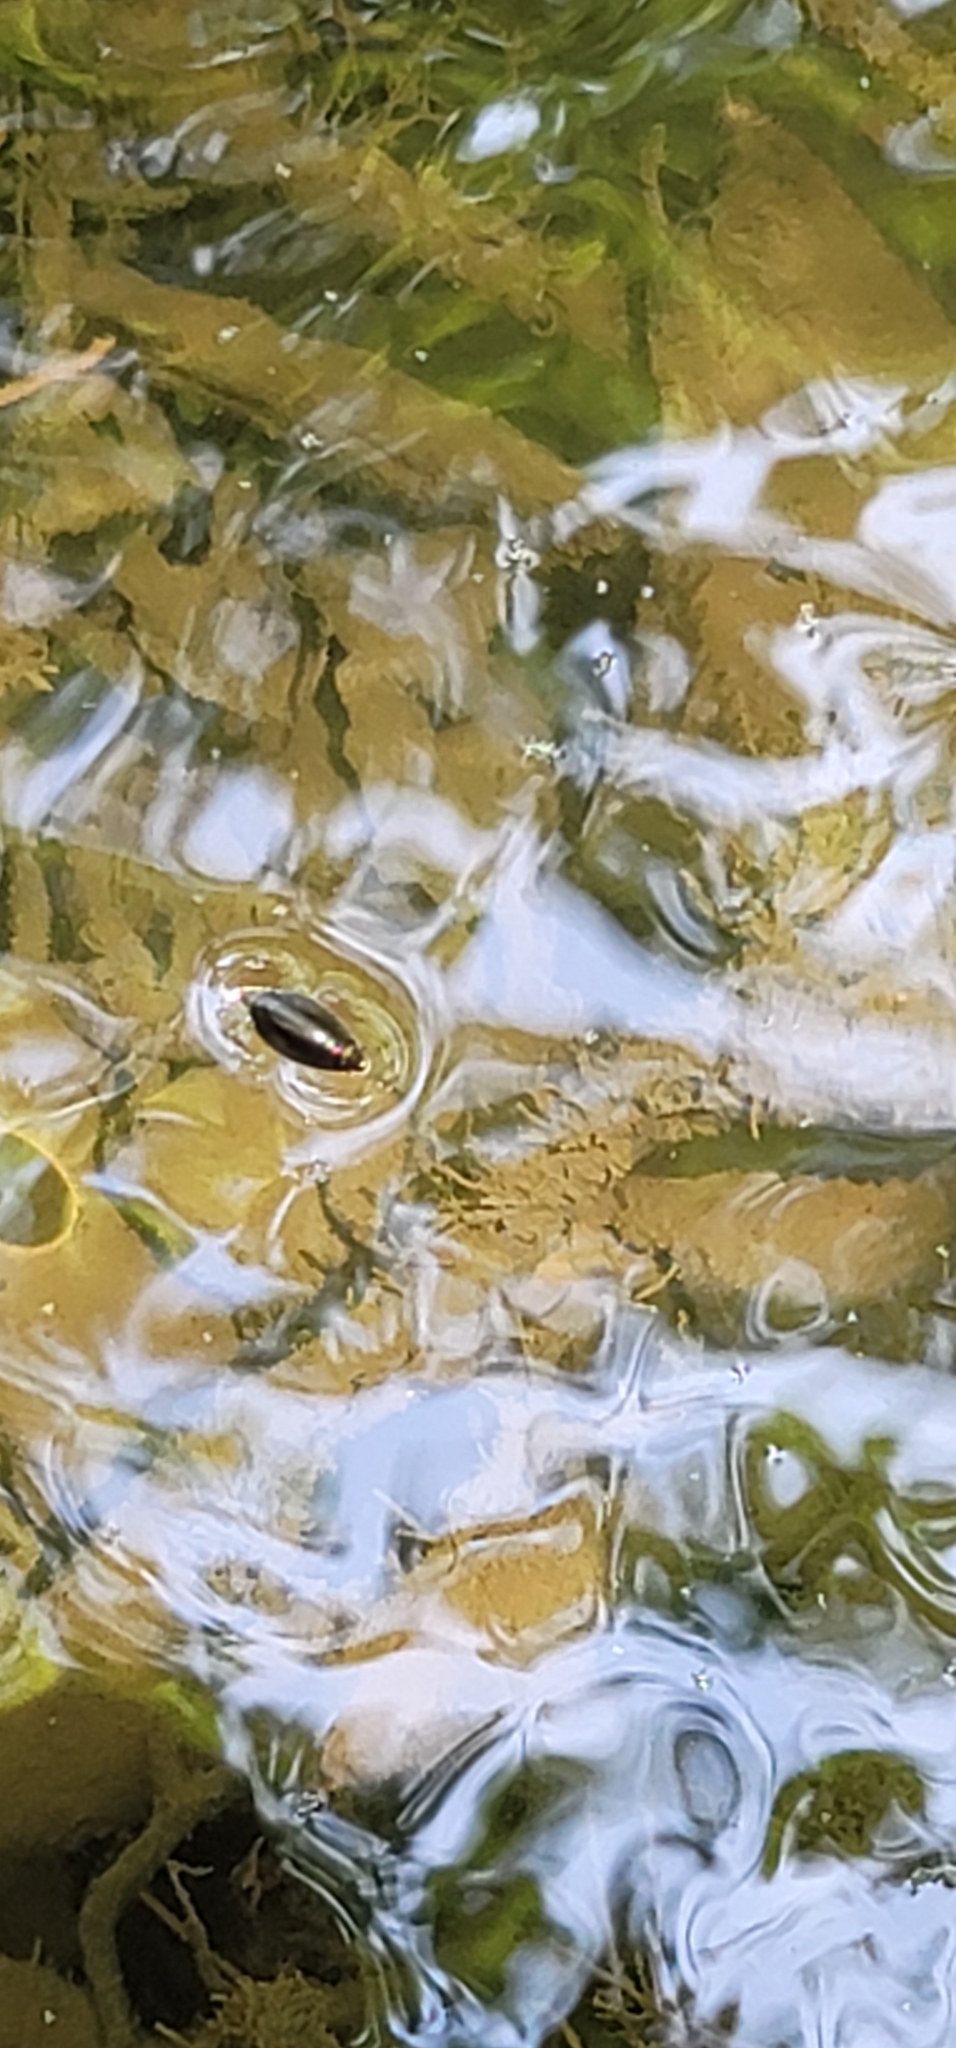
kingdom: Animalia
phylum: Arthropoda
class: Insecta
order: Coleoptera
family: Gyrinidae
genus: Dineutus
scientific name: Dineutus
